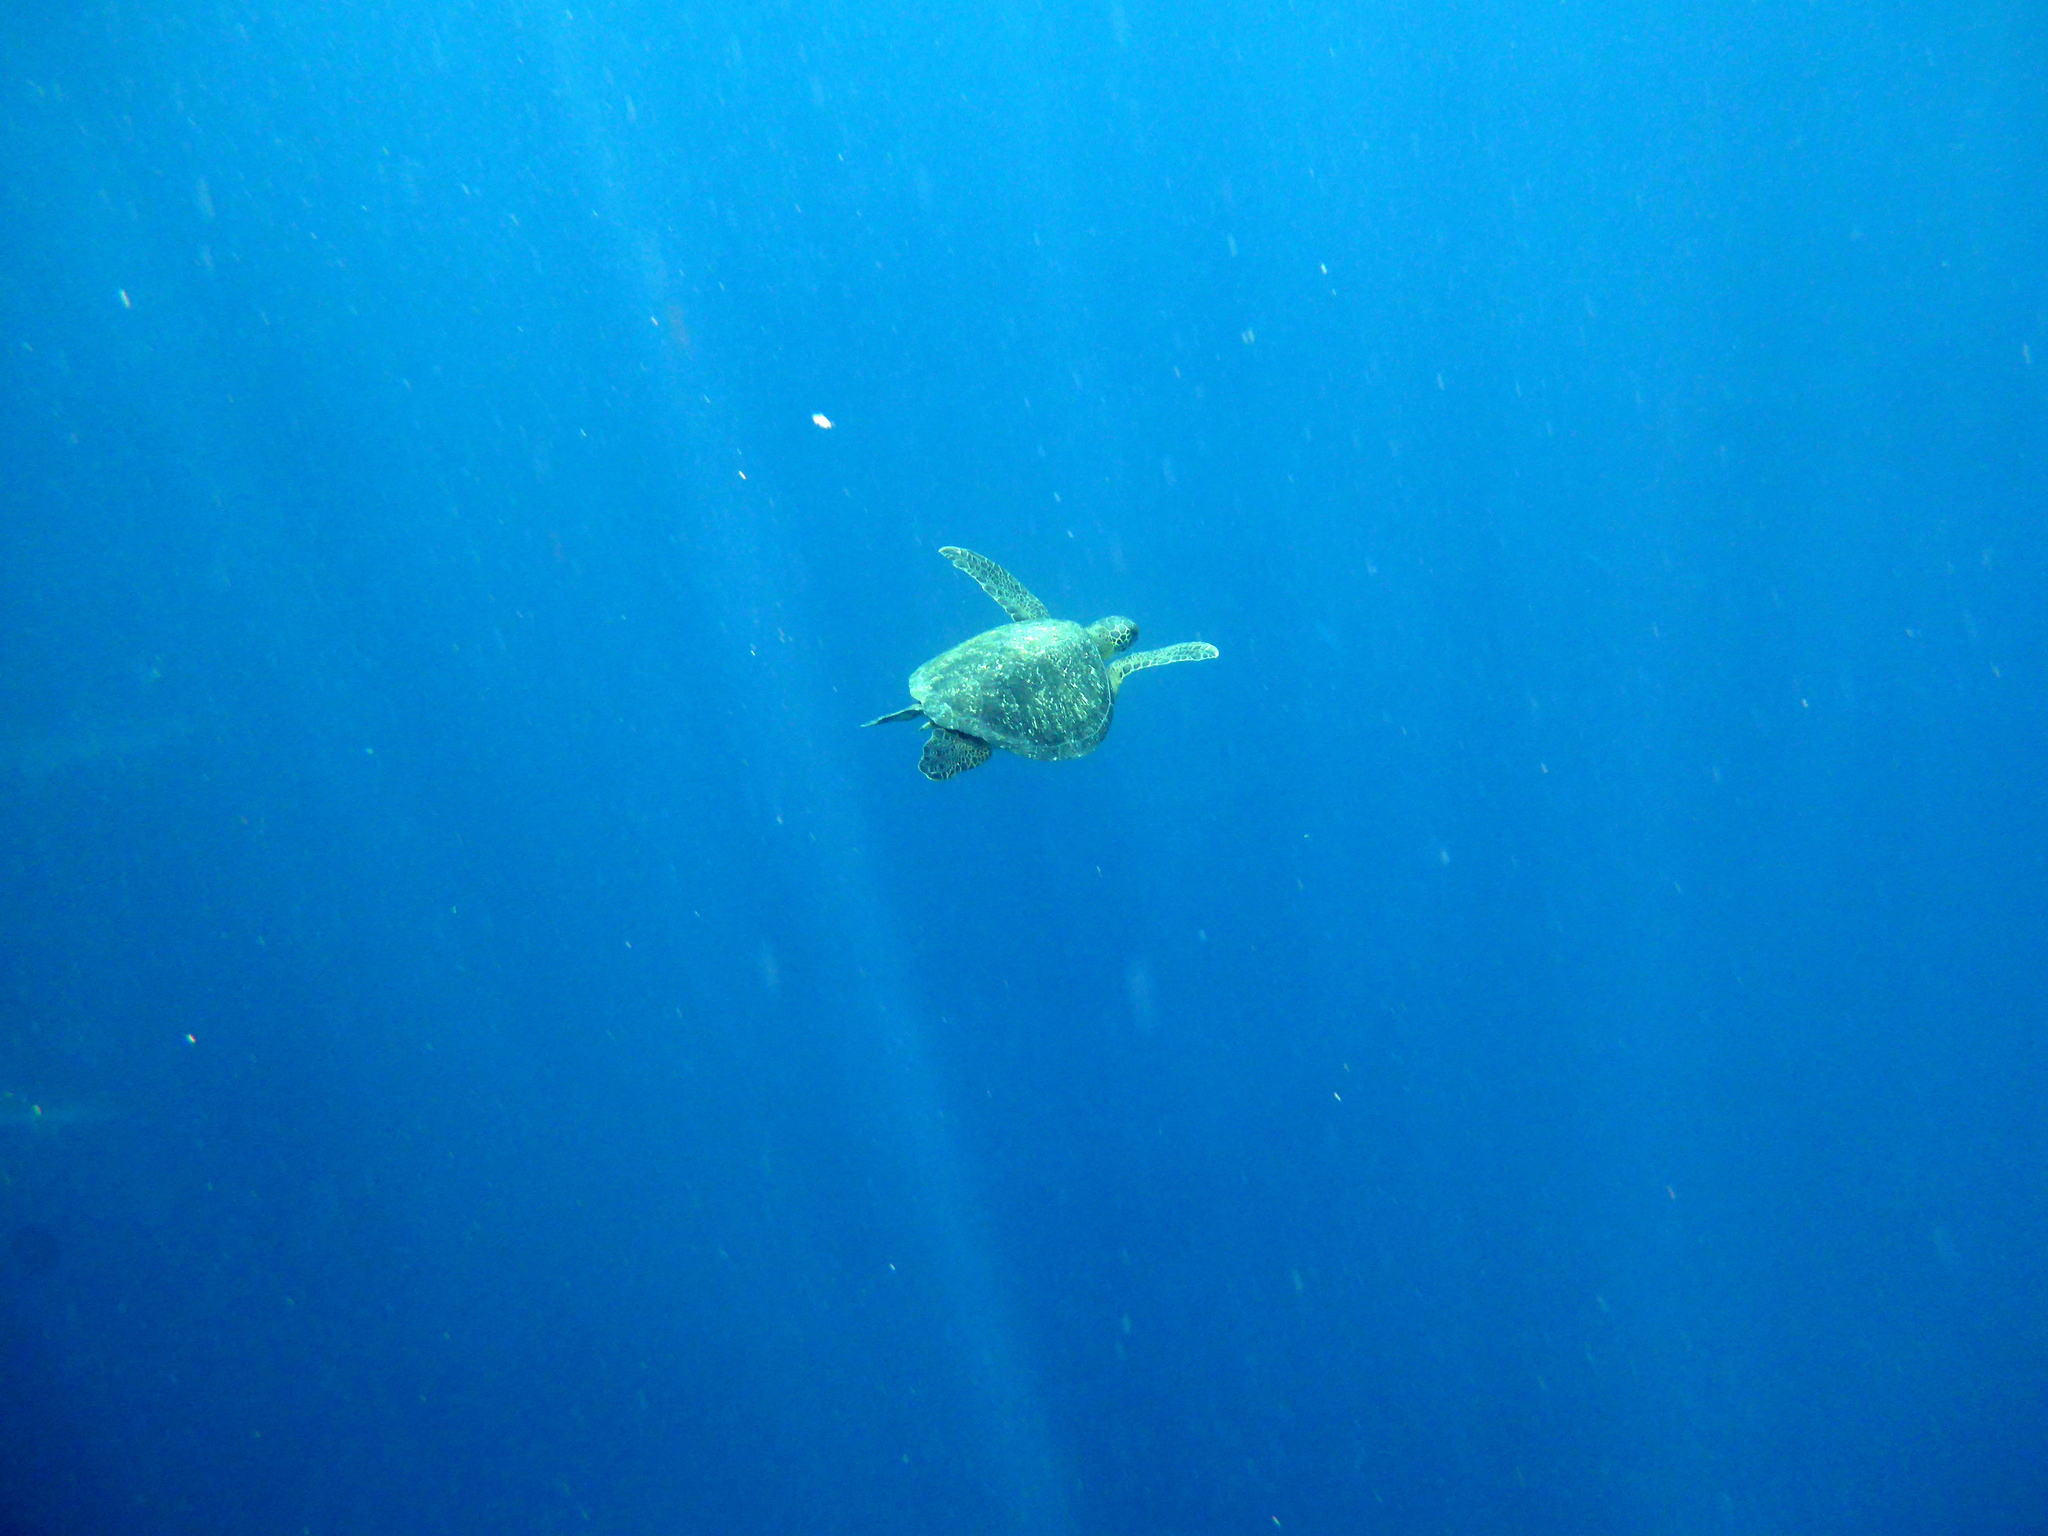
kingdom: Animalia
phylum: Chordata
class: Testudines
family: Cheloniidae
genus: Chelonia
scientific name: Chelonia mydas
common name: Green turtle
